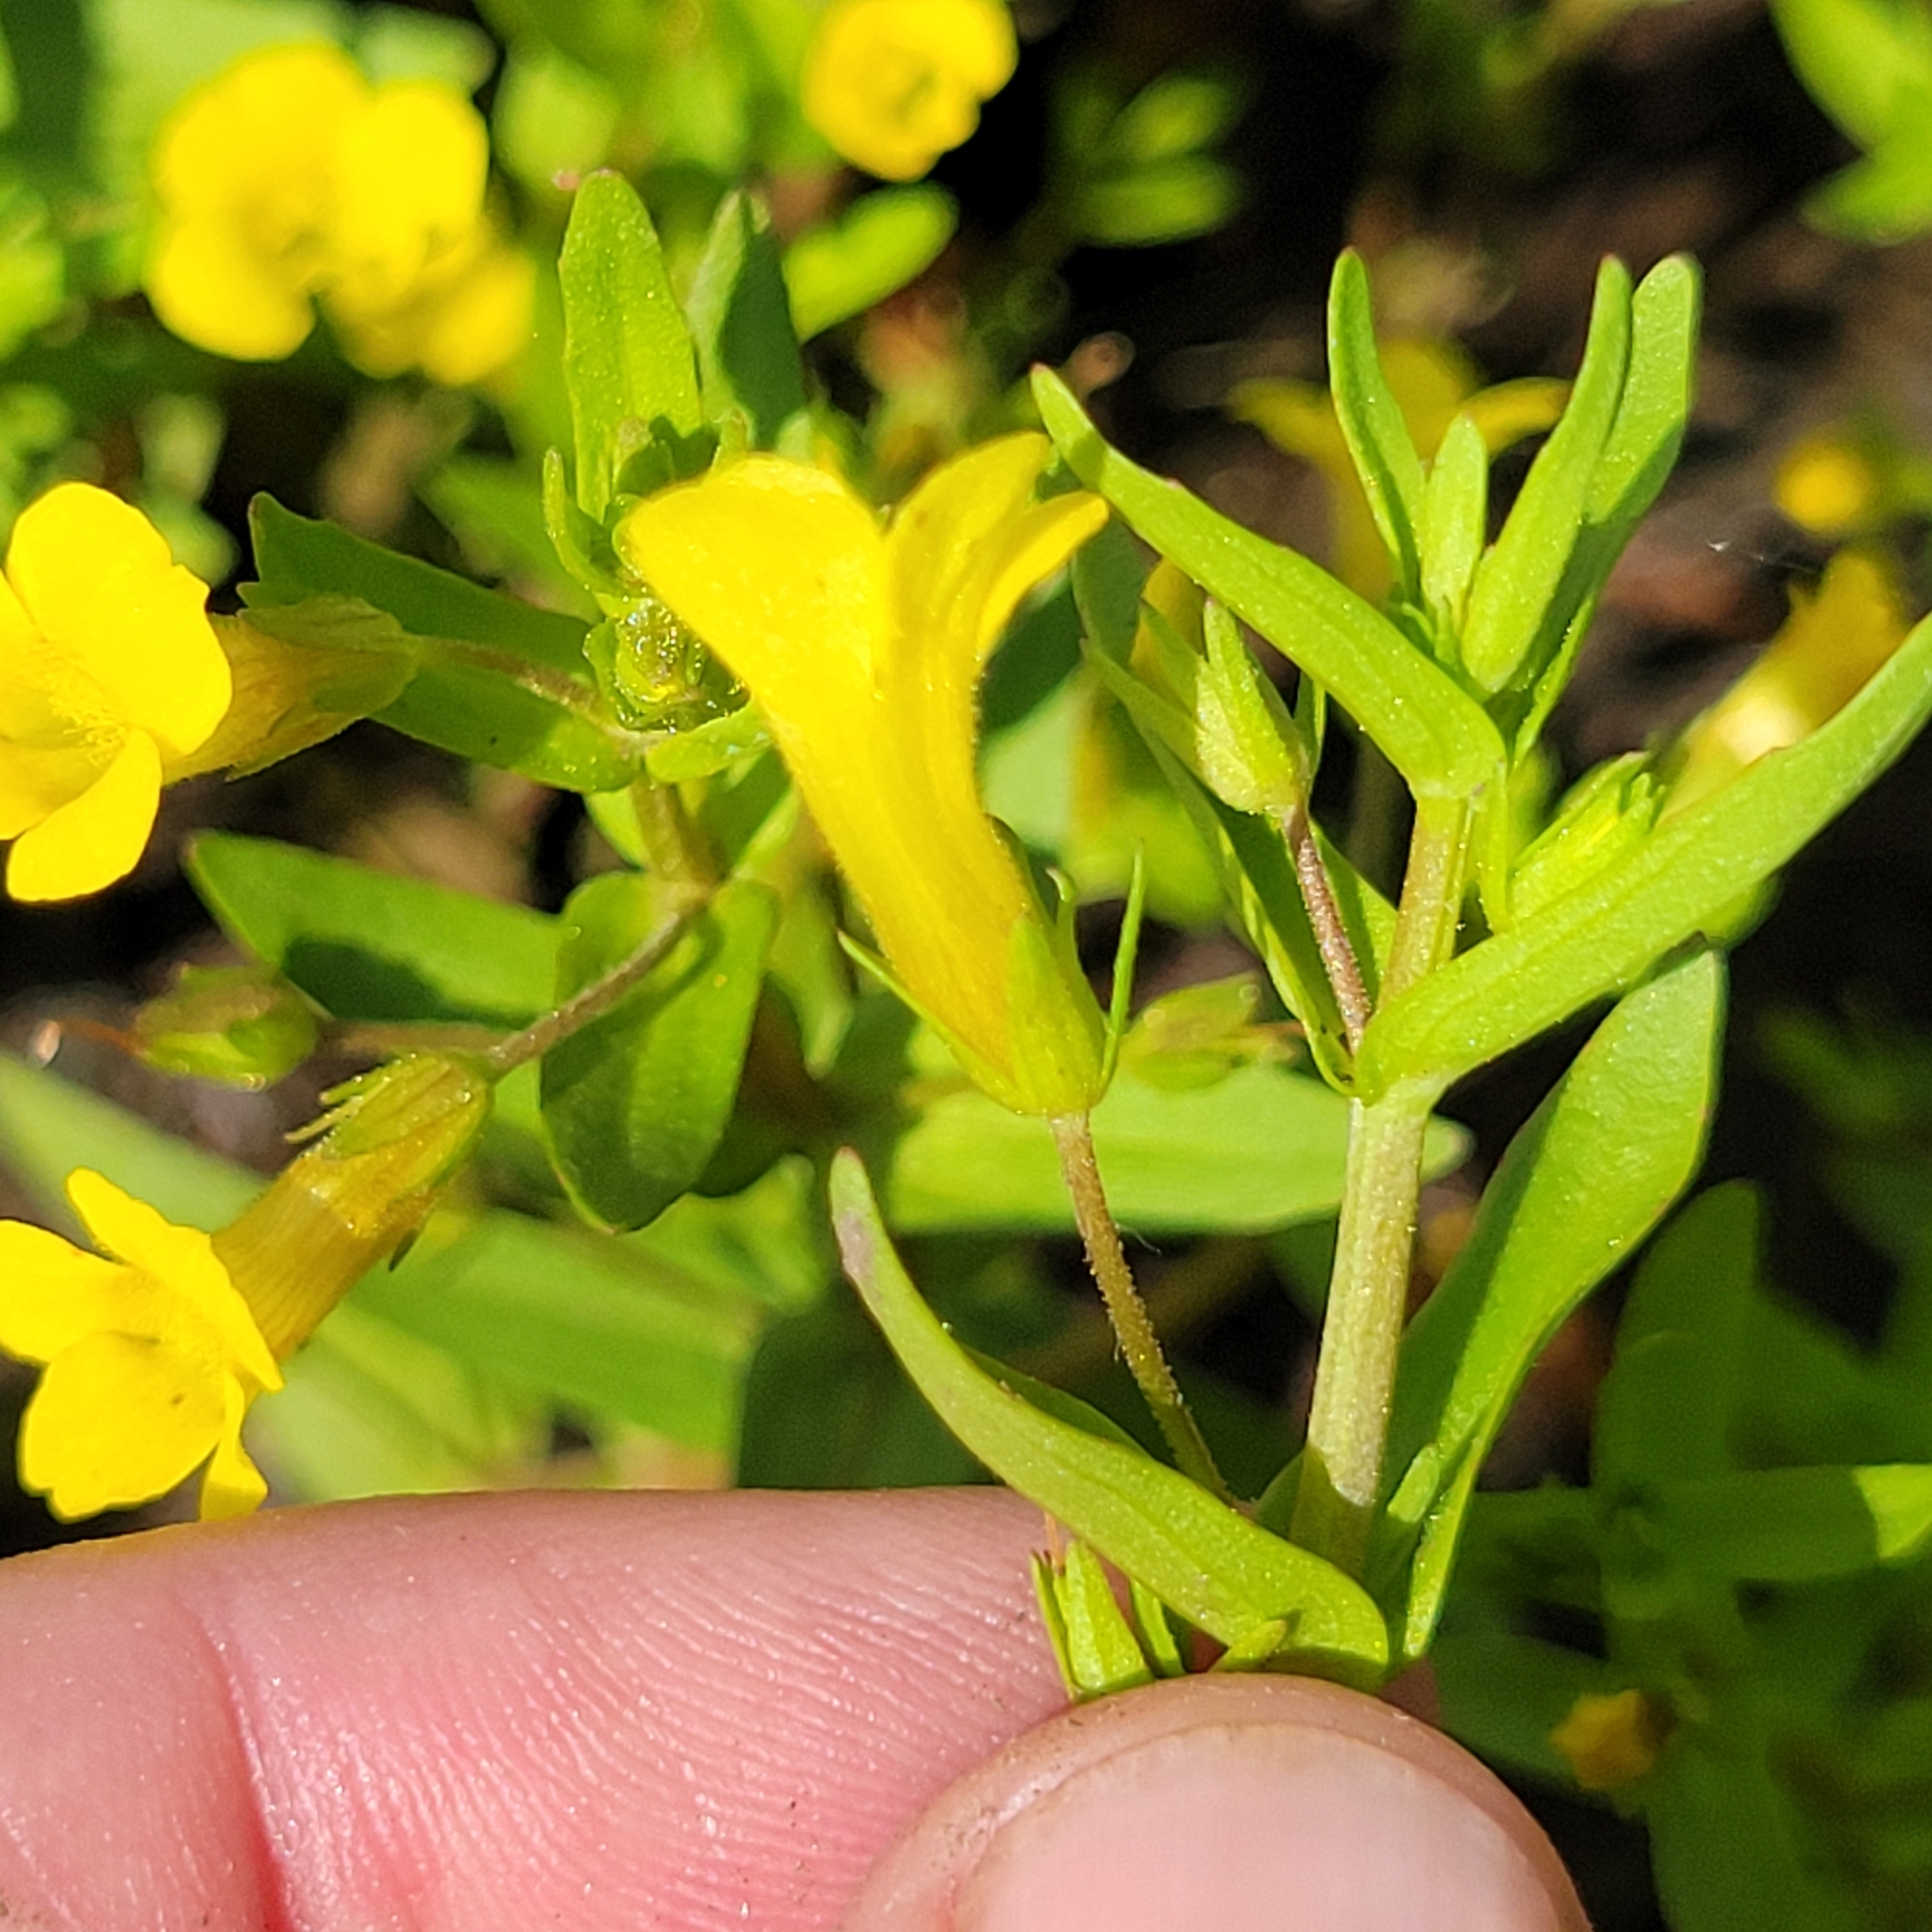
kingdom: Plantae
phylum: Tracheophyta
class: Magnoliopsida
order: Lamiales
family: Plantaginaceae
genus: Gratiola
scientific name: Gratiola lutea
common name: Golden hedge-hyssop
